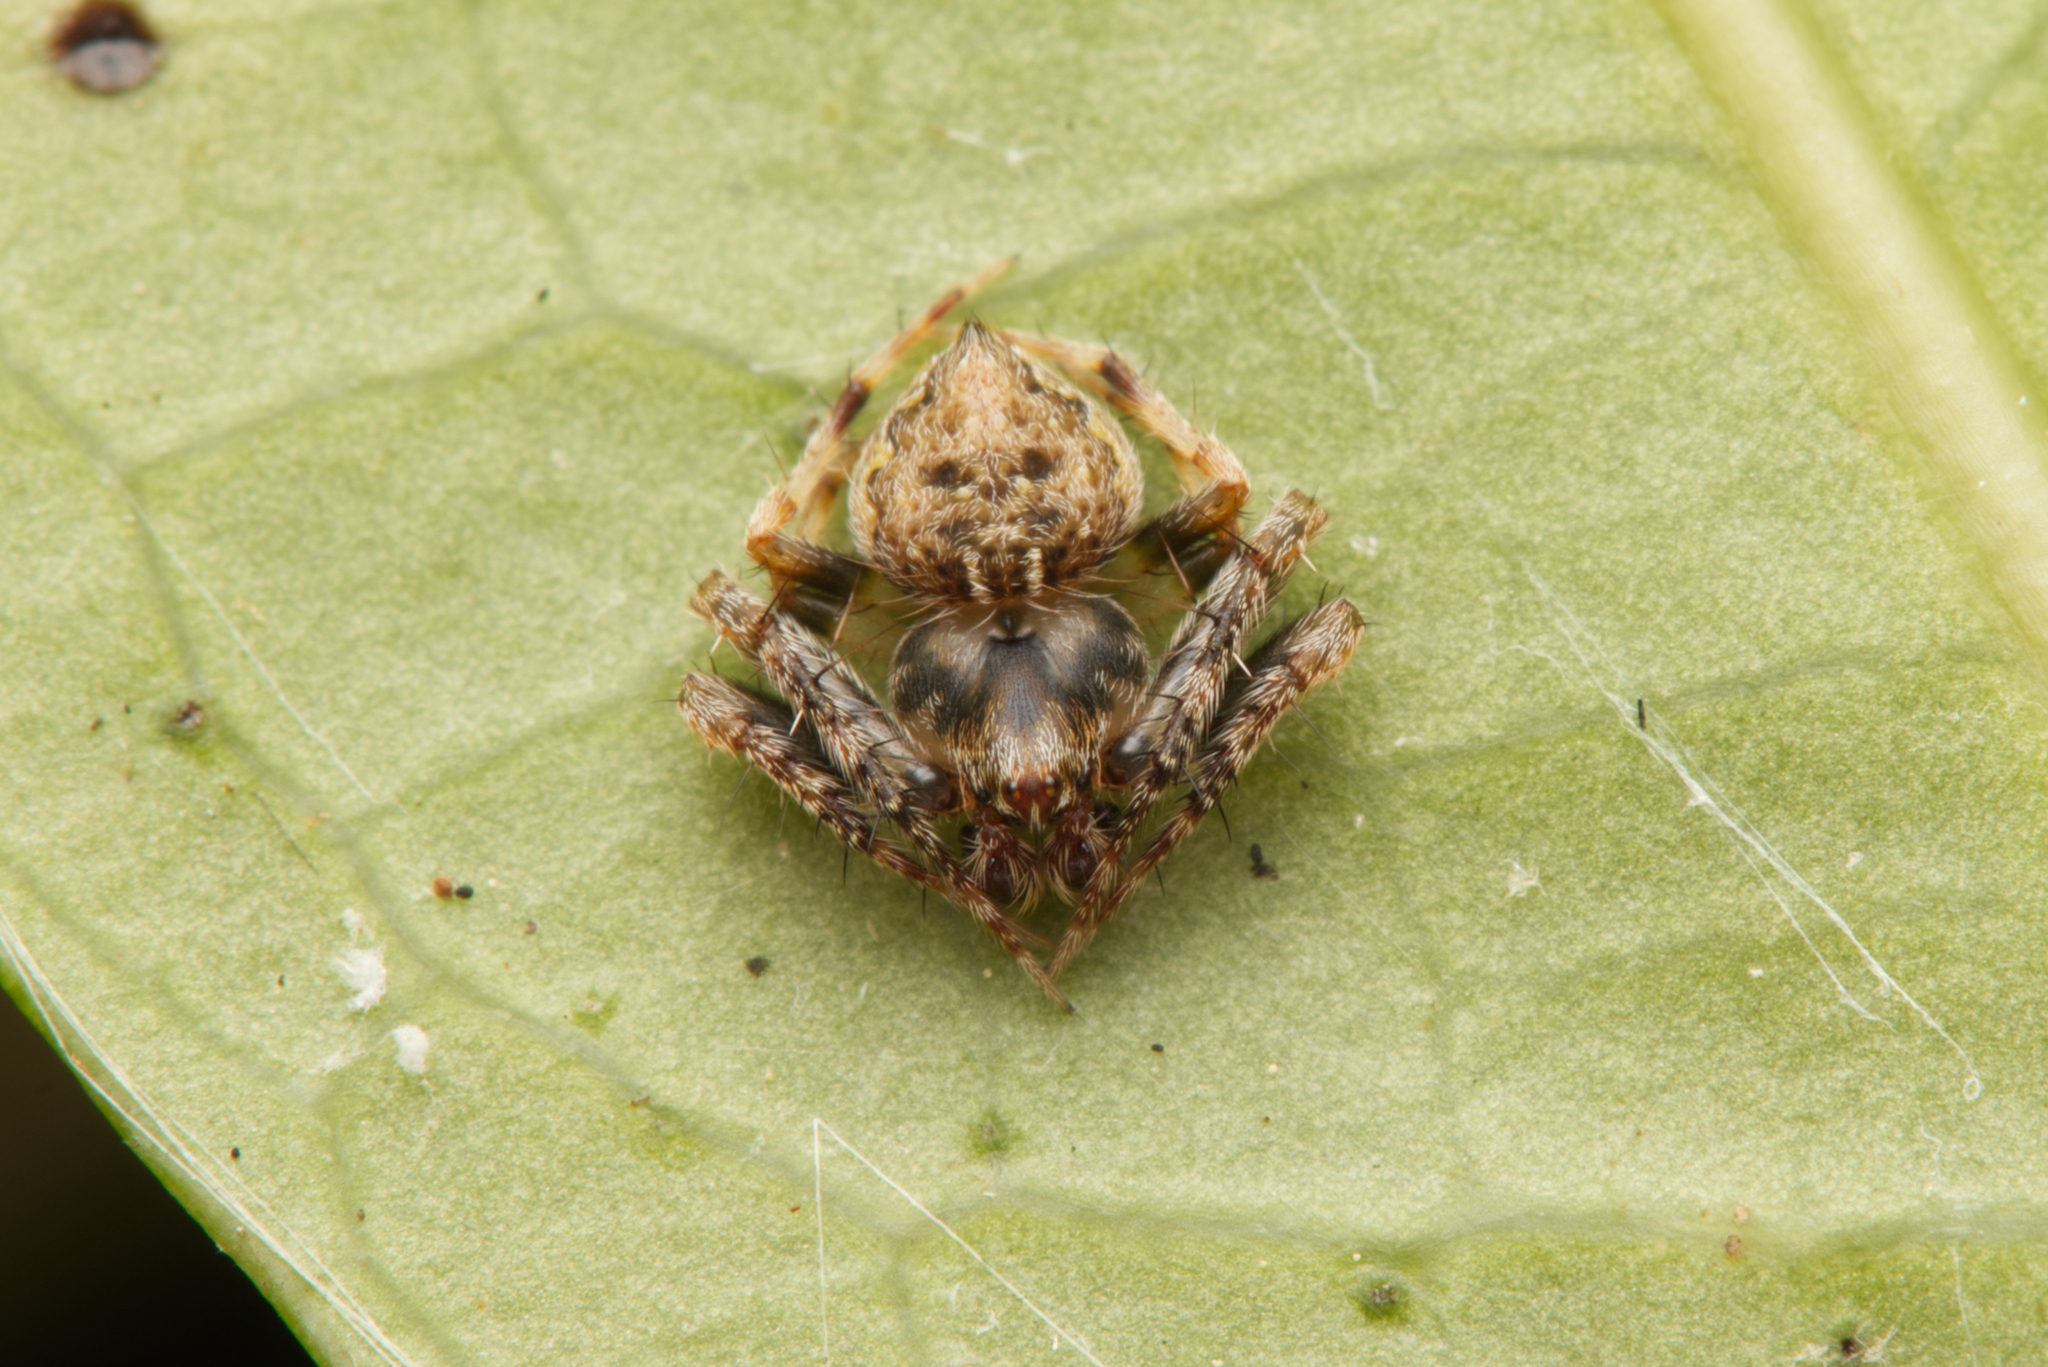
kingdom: Animalia
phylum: Arthropoda
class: Arachnida
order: Araneae
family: Araneidae
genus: Araneus
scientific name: Araneus acuminatus
